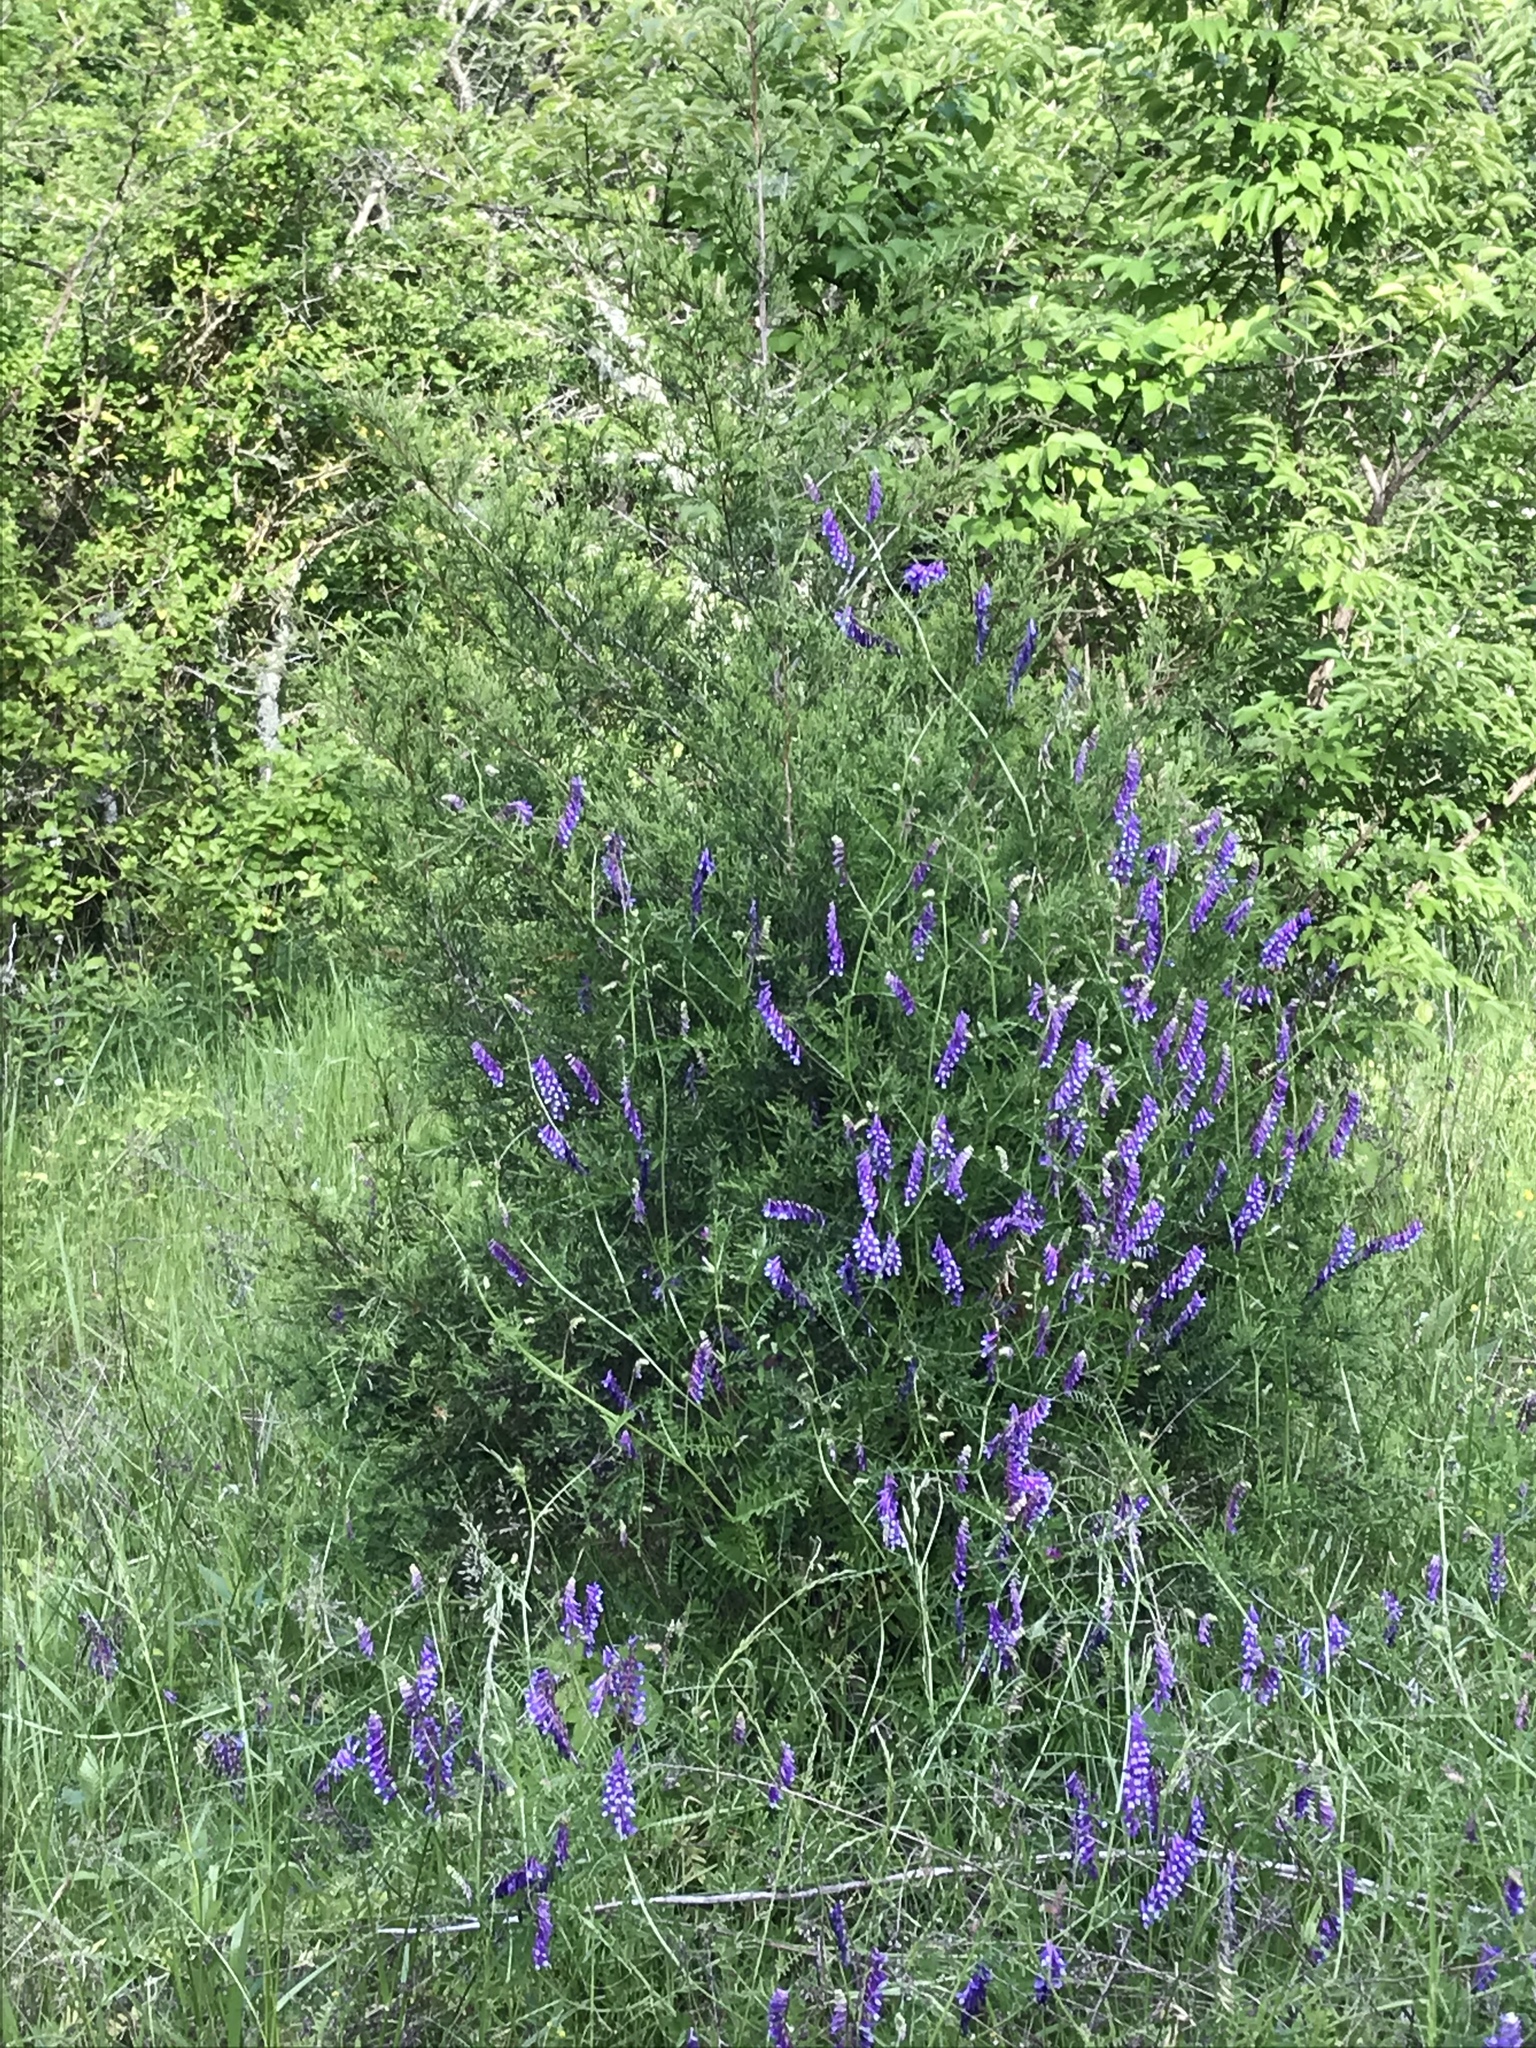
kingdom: Plantae
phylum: Tracheophyta
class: Magnoliopsida
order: Fabales
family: Fabaceae
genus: Vicia
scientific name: Vicia villosa
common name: Fodder vetch
